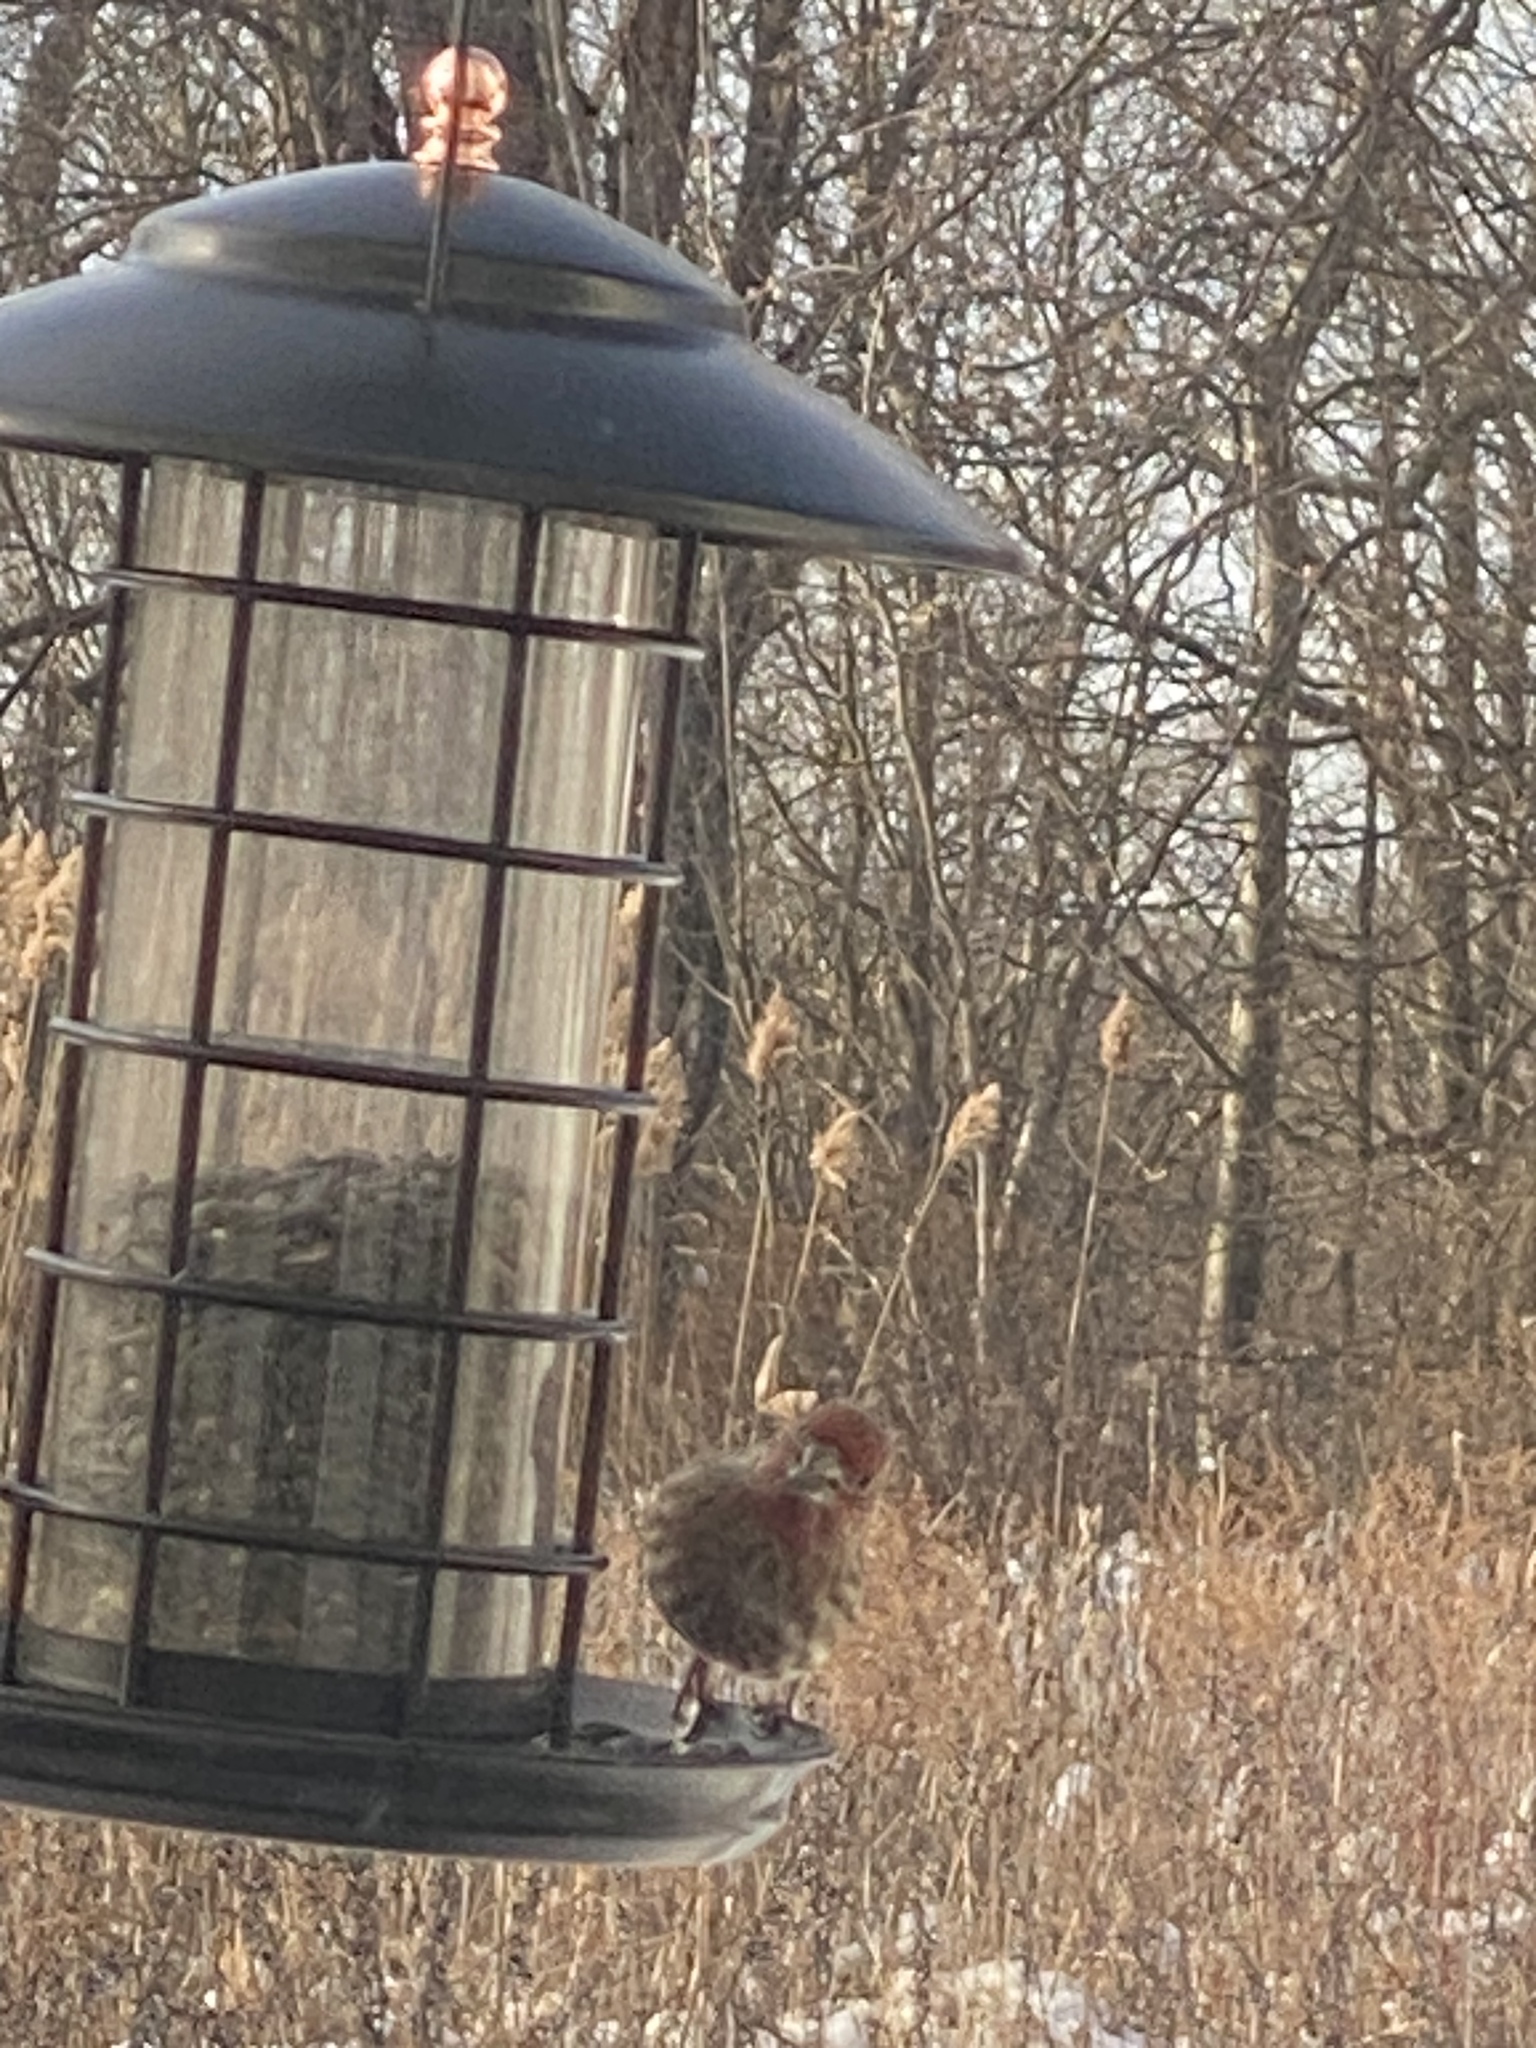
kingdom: Animalia
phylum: Chordata
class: Aves
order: Passeriformes
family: Fringillidae
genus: Haemorhous
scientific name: Haemorhous mexicanus
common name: House finch
